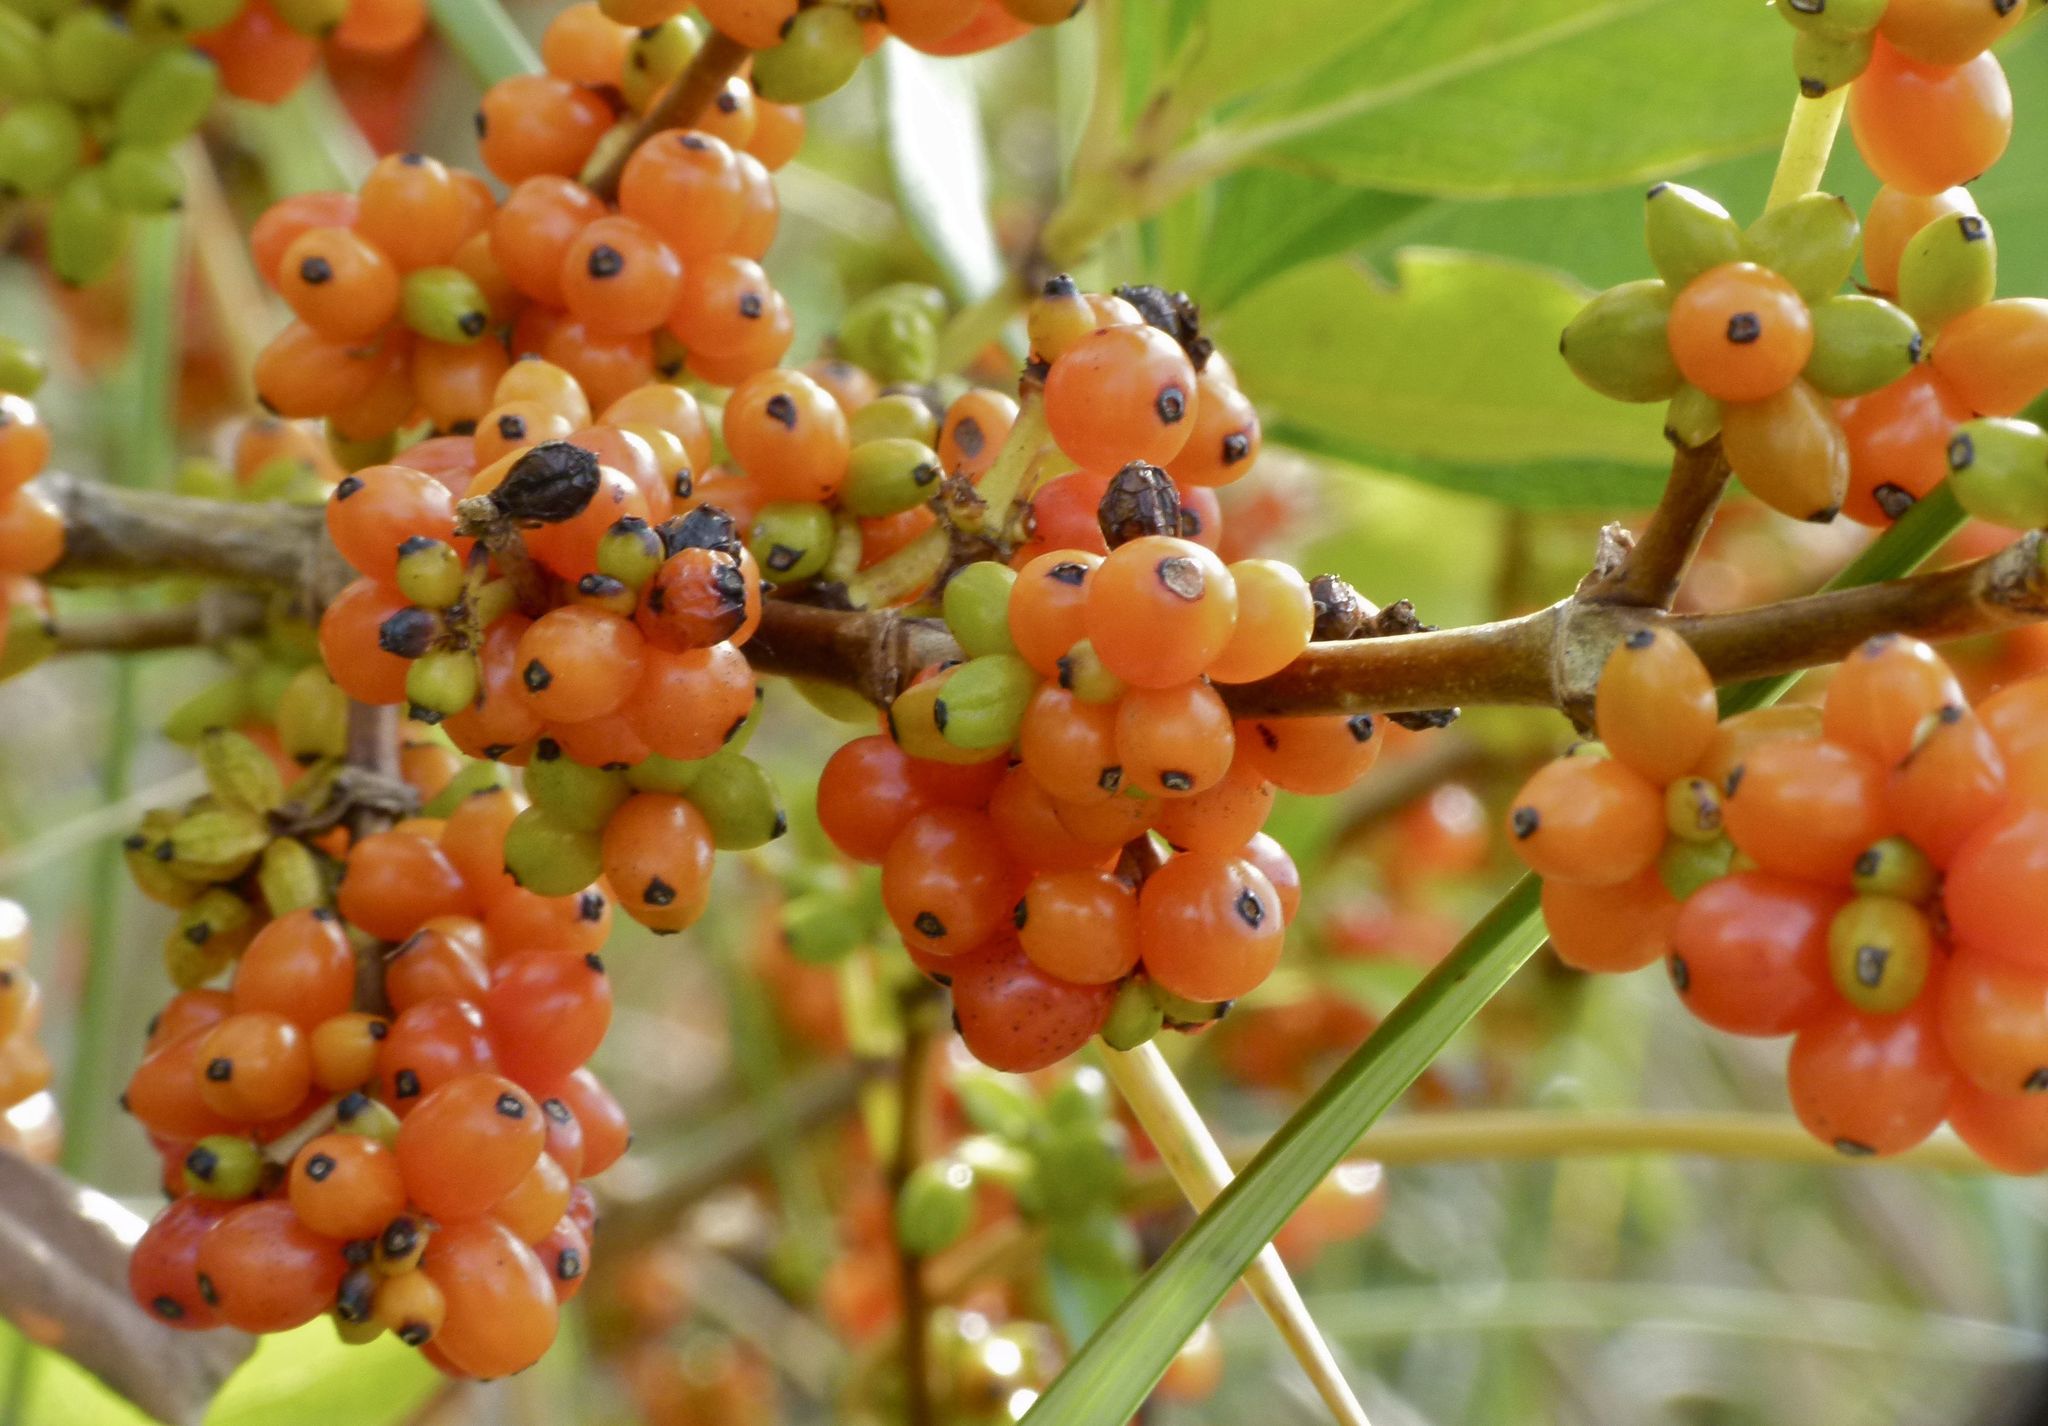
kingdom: Plantae
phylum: Tracheophyta
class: Magnoliopsida
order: Gentianales
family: Rubiaceae
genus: Coprosma
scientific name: Coprosma repens
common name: Tree bedstraw
